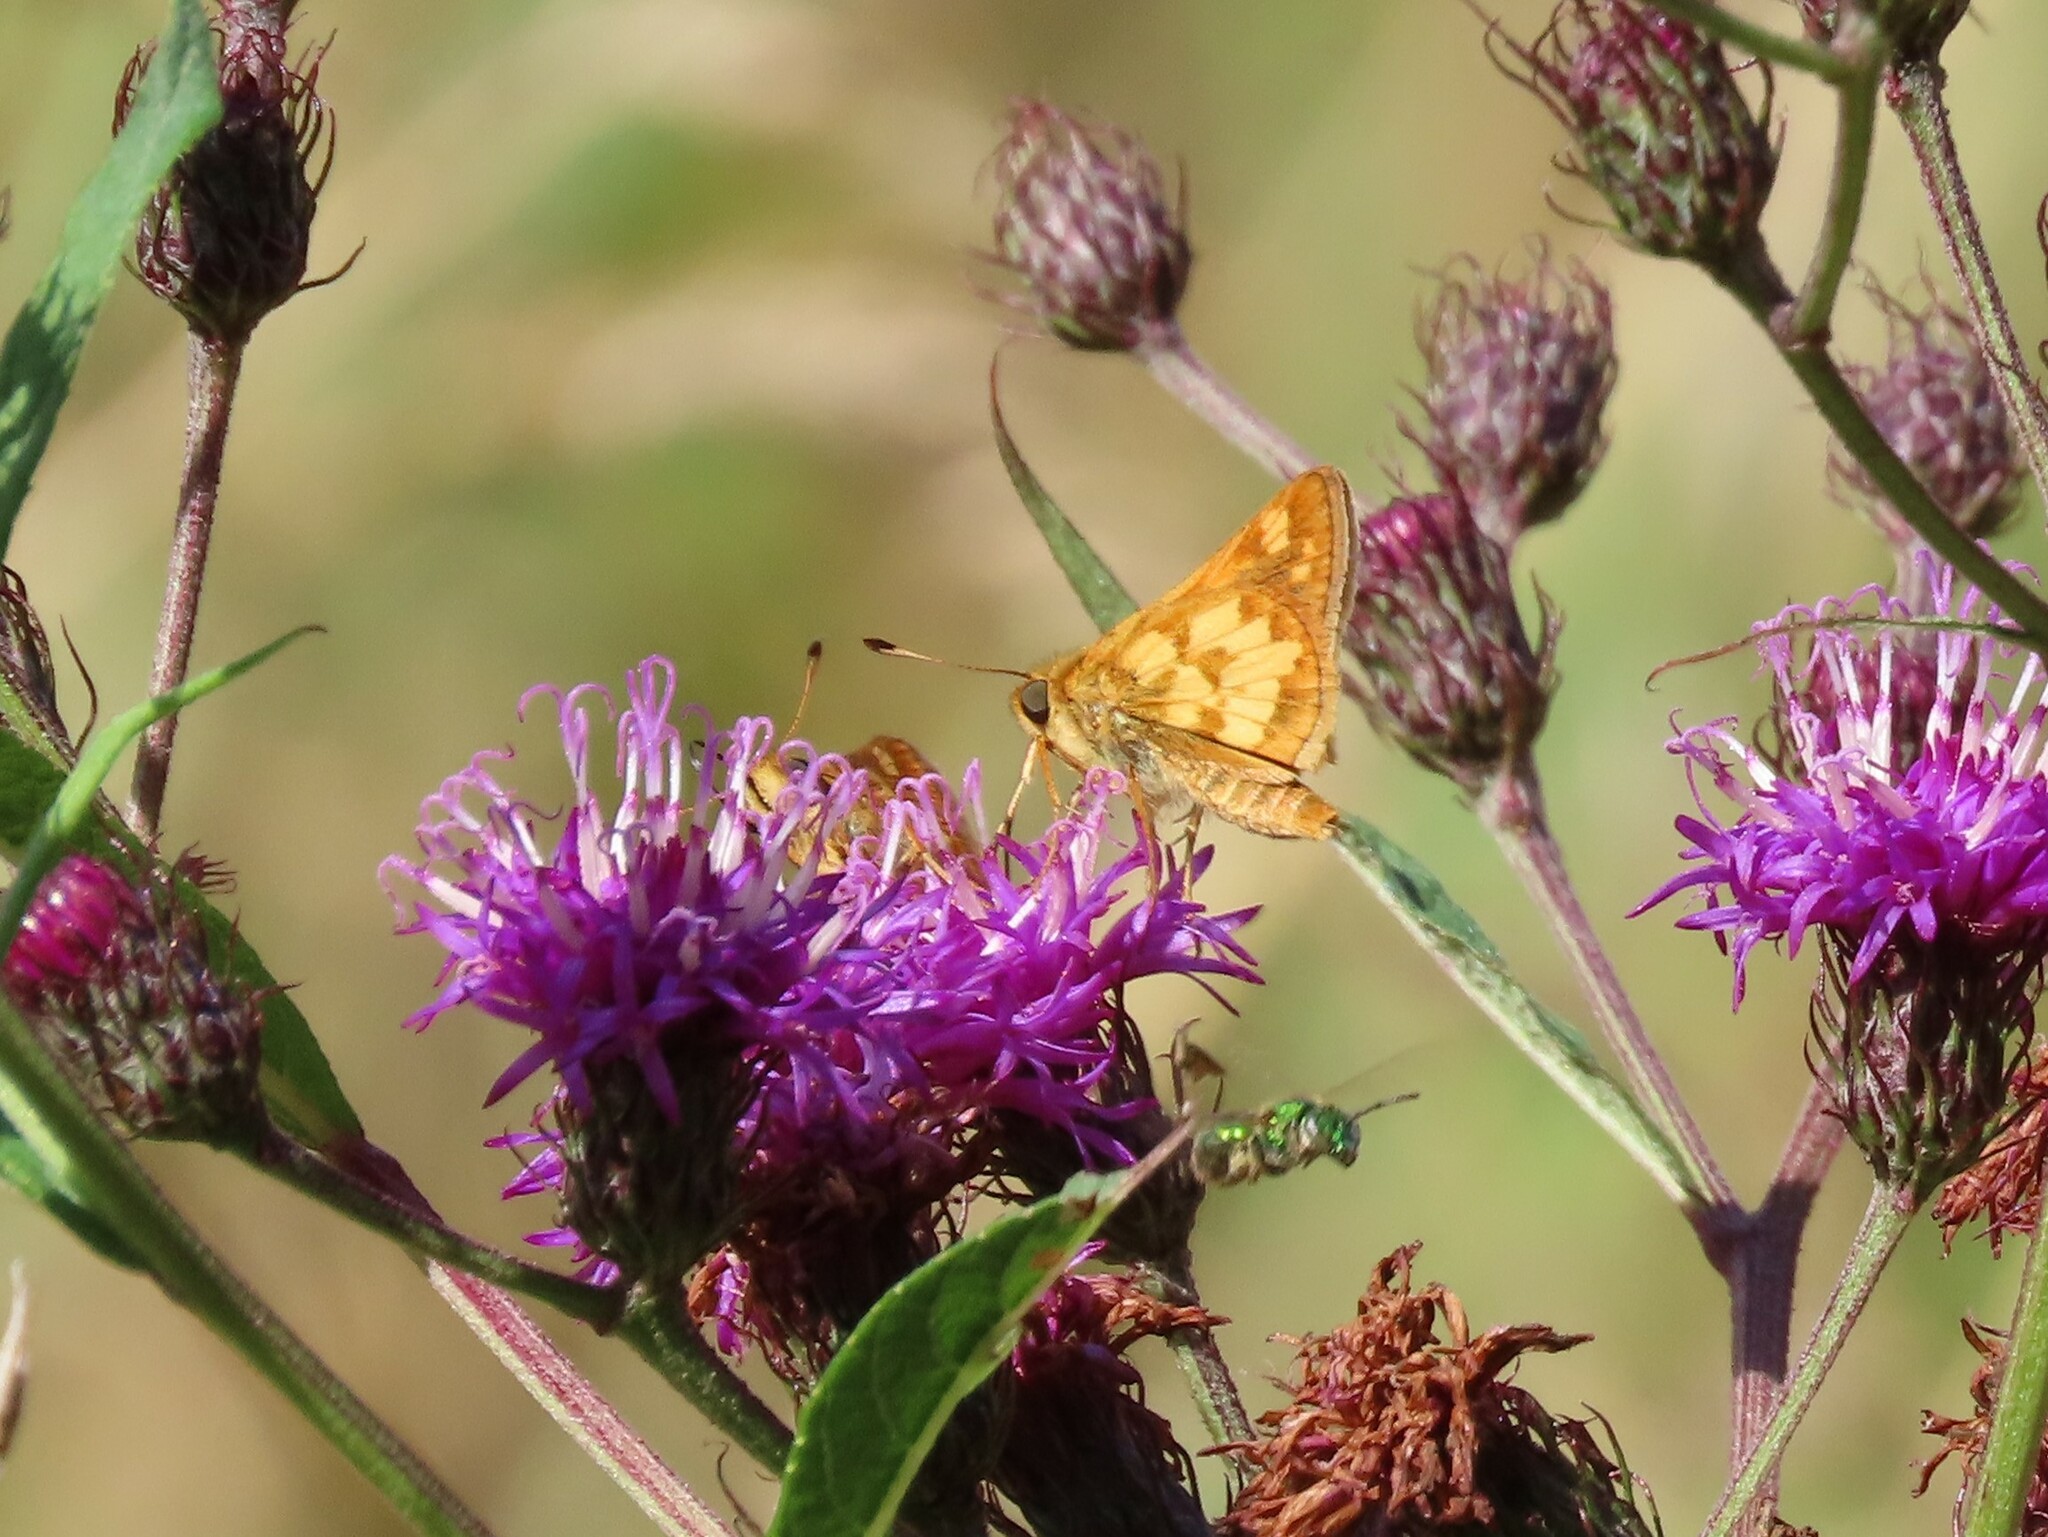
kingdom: Animalia
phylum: Arthropoda
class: Insecta
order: Lepidoptera
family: Hesperiidae
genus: Polites
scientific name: Polites coras
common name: Peck's skipper
